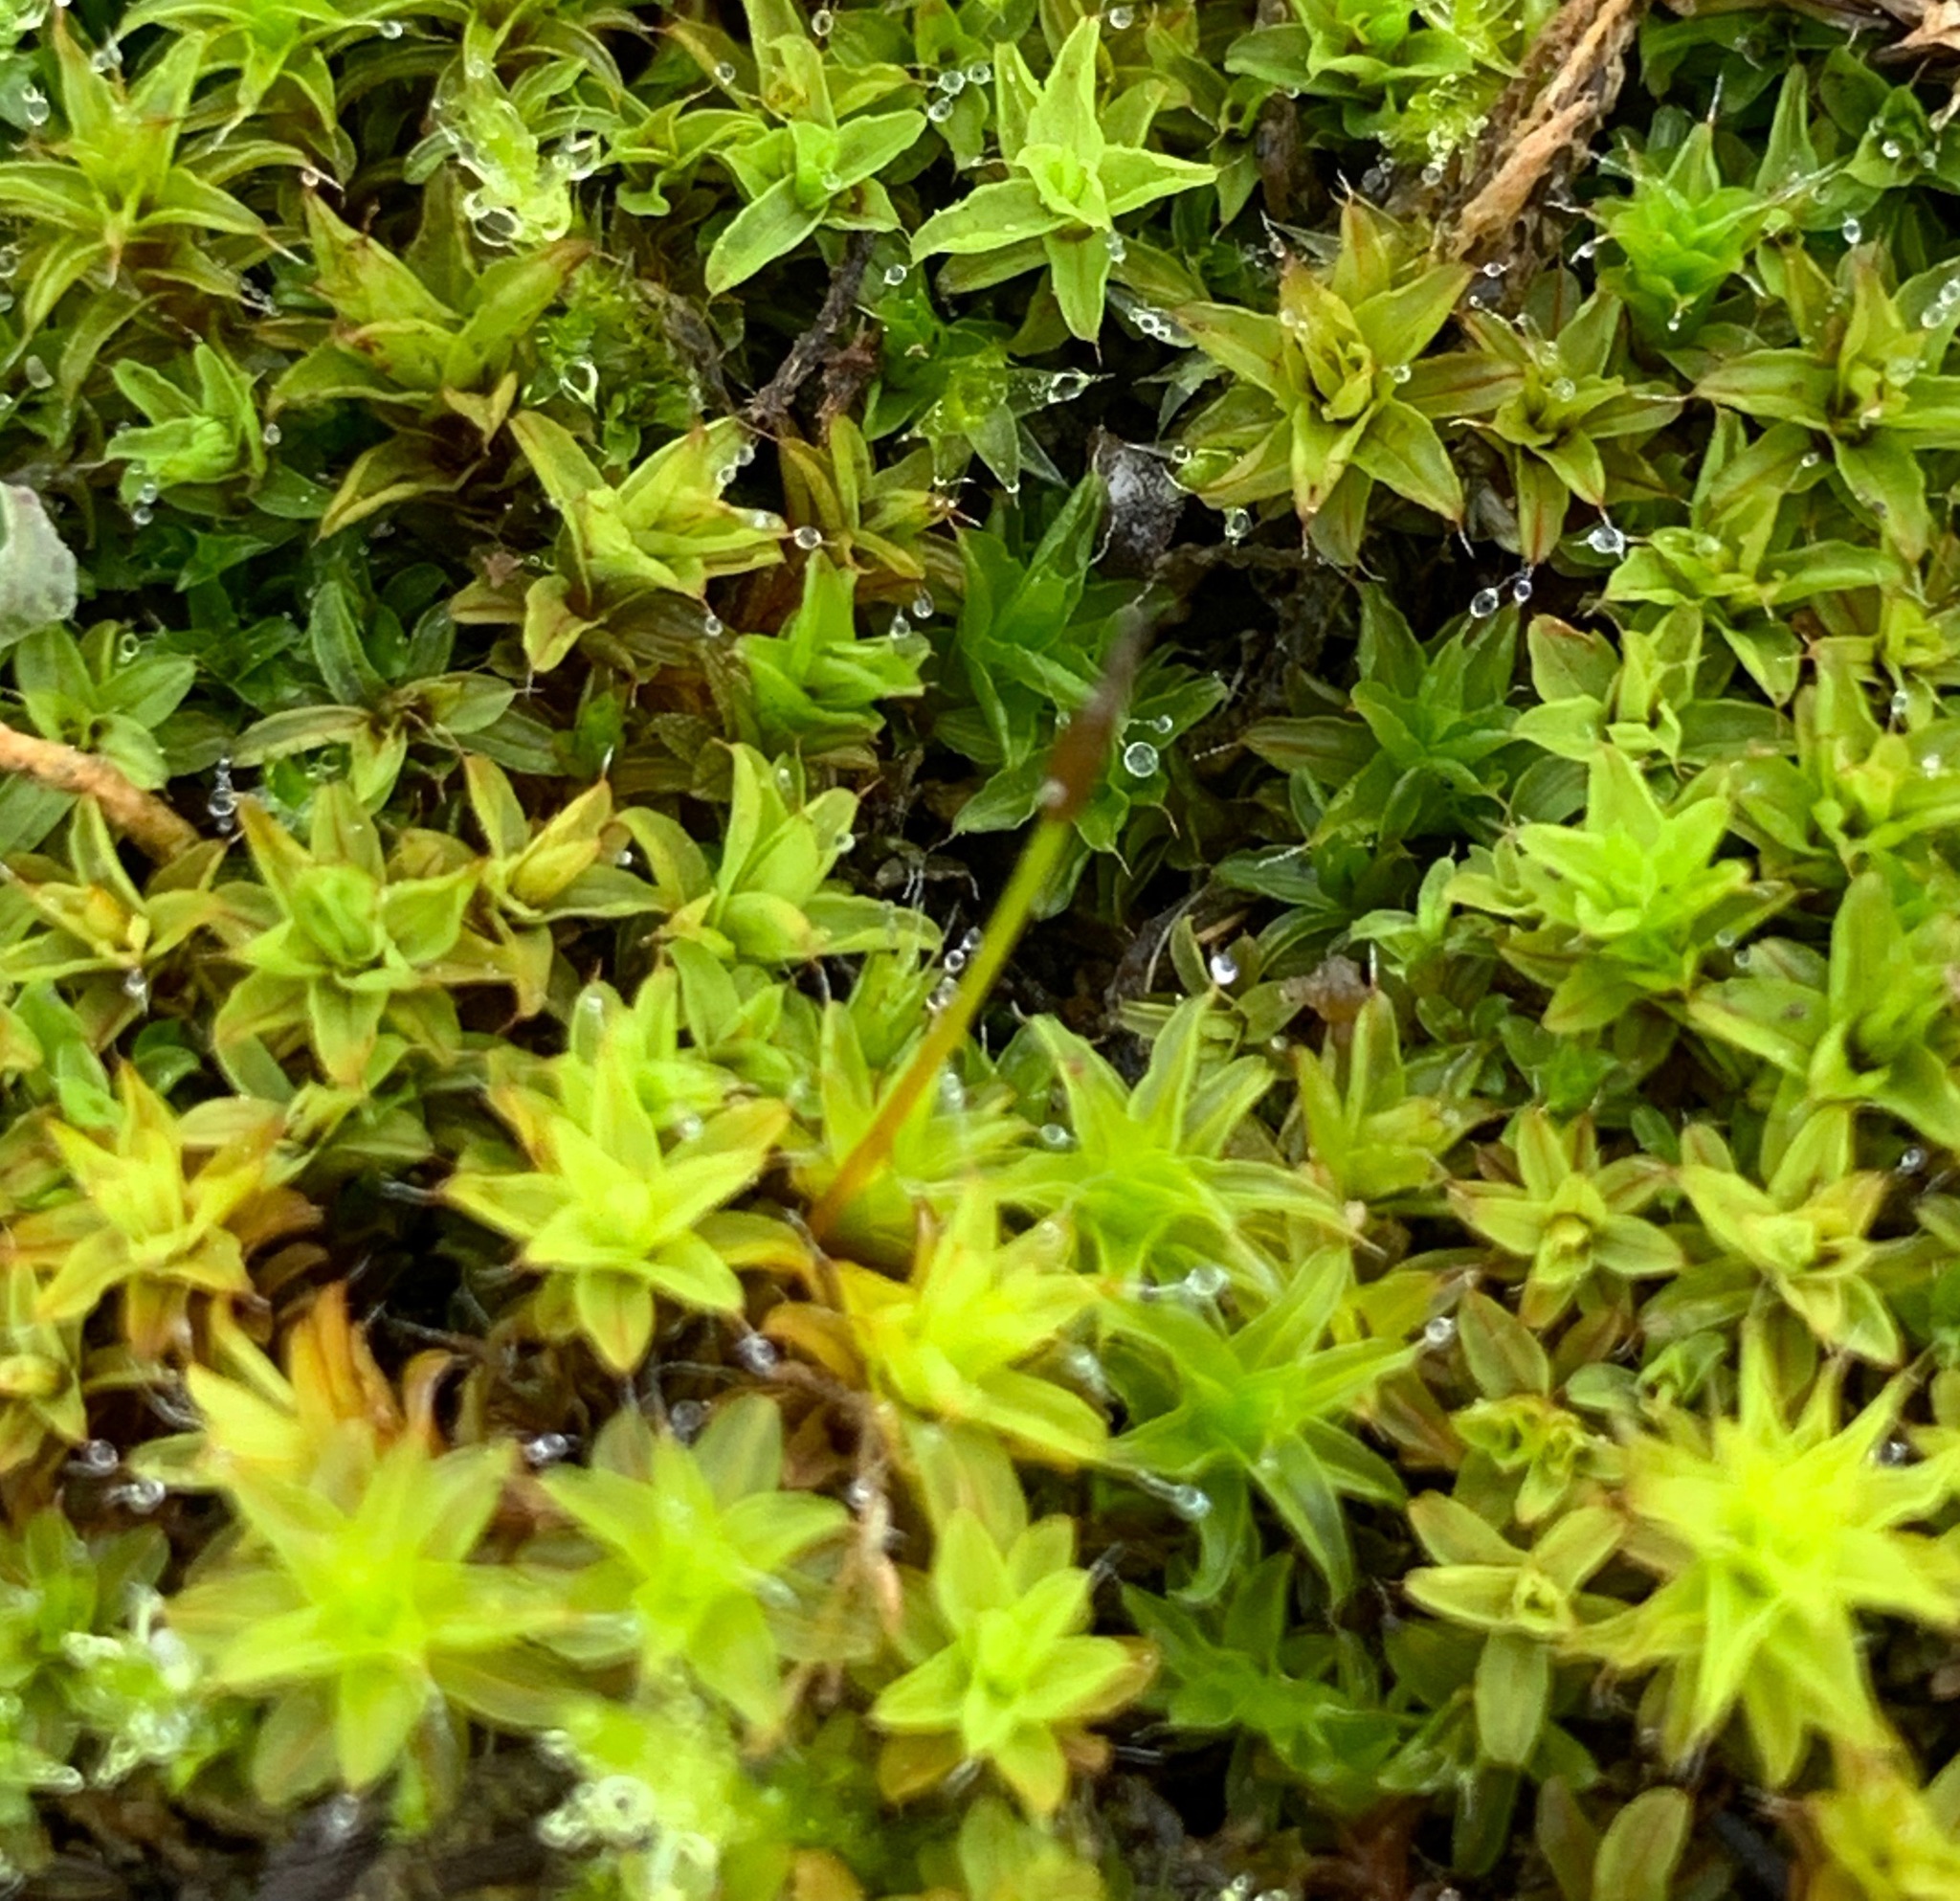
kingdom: Plantae
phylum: Bryophyta
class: Bryopsida
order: Pottiales
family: Pottiaceae
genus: Syntrichia
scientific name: Syntrichia montana
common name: Intermediate screw-moss
